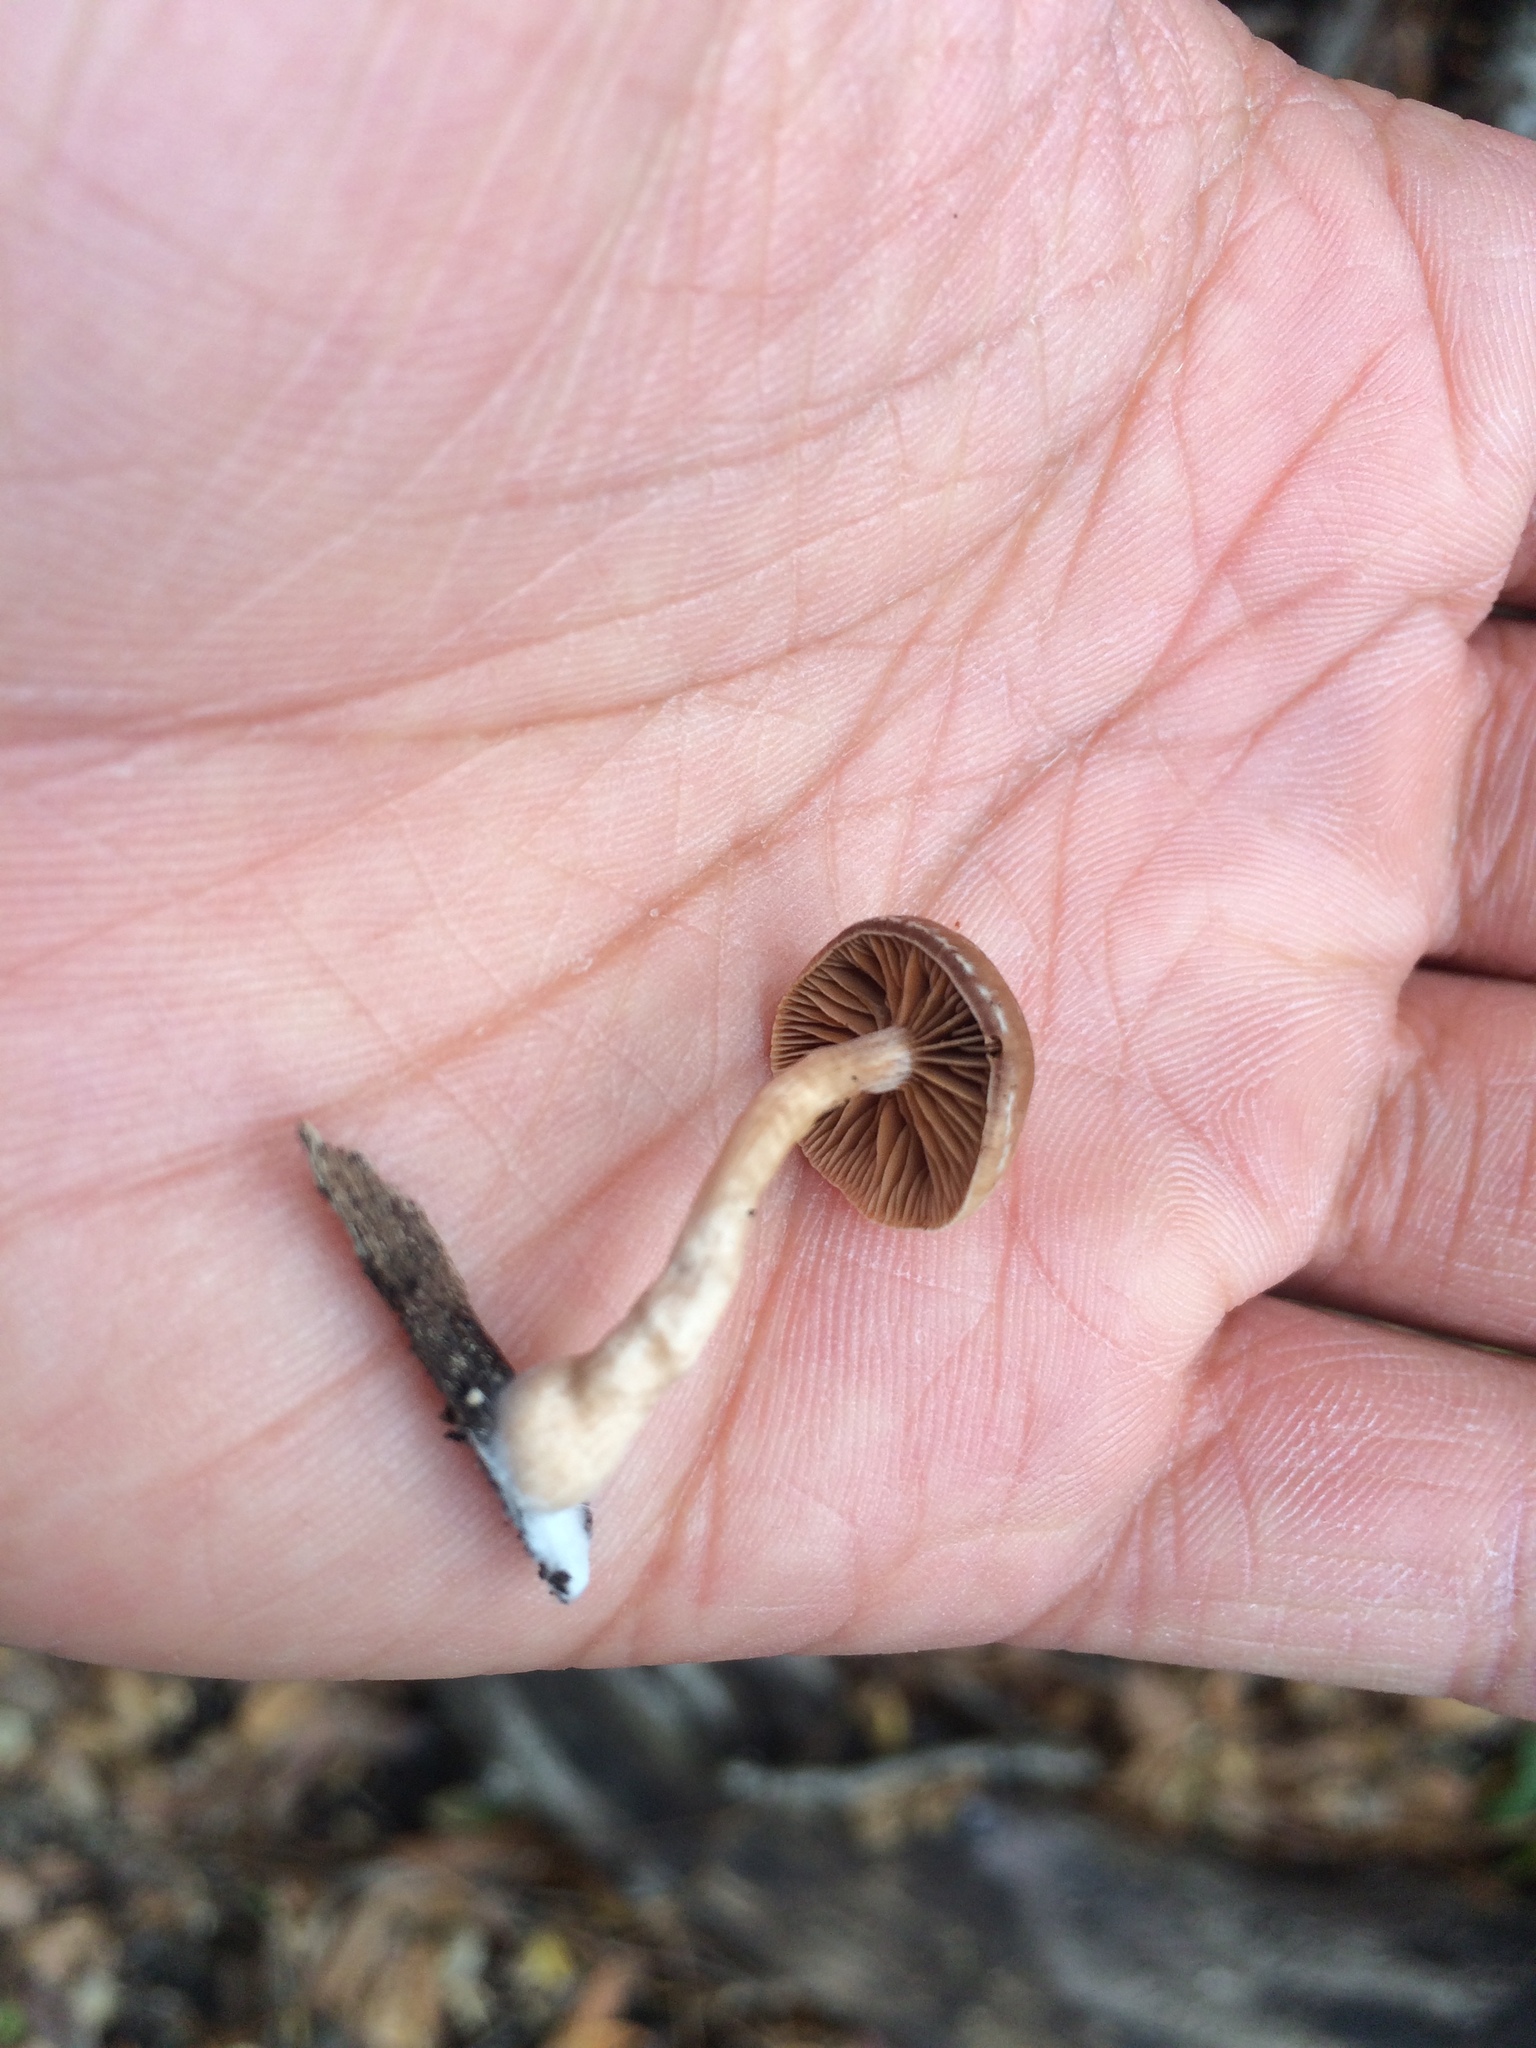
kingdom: Fungi
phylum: Basidiomycota
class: Agaricomycetes
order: Agaricales
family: Tubariaceae
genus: Tubaria
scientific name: Tubaria furfuracea
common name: Scurfy twiglet
